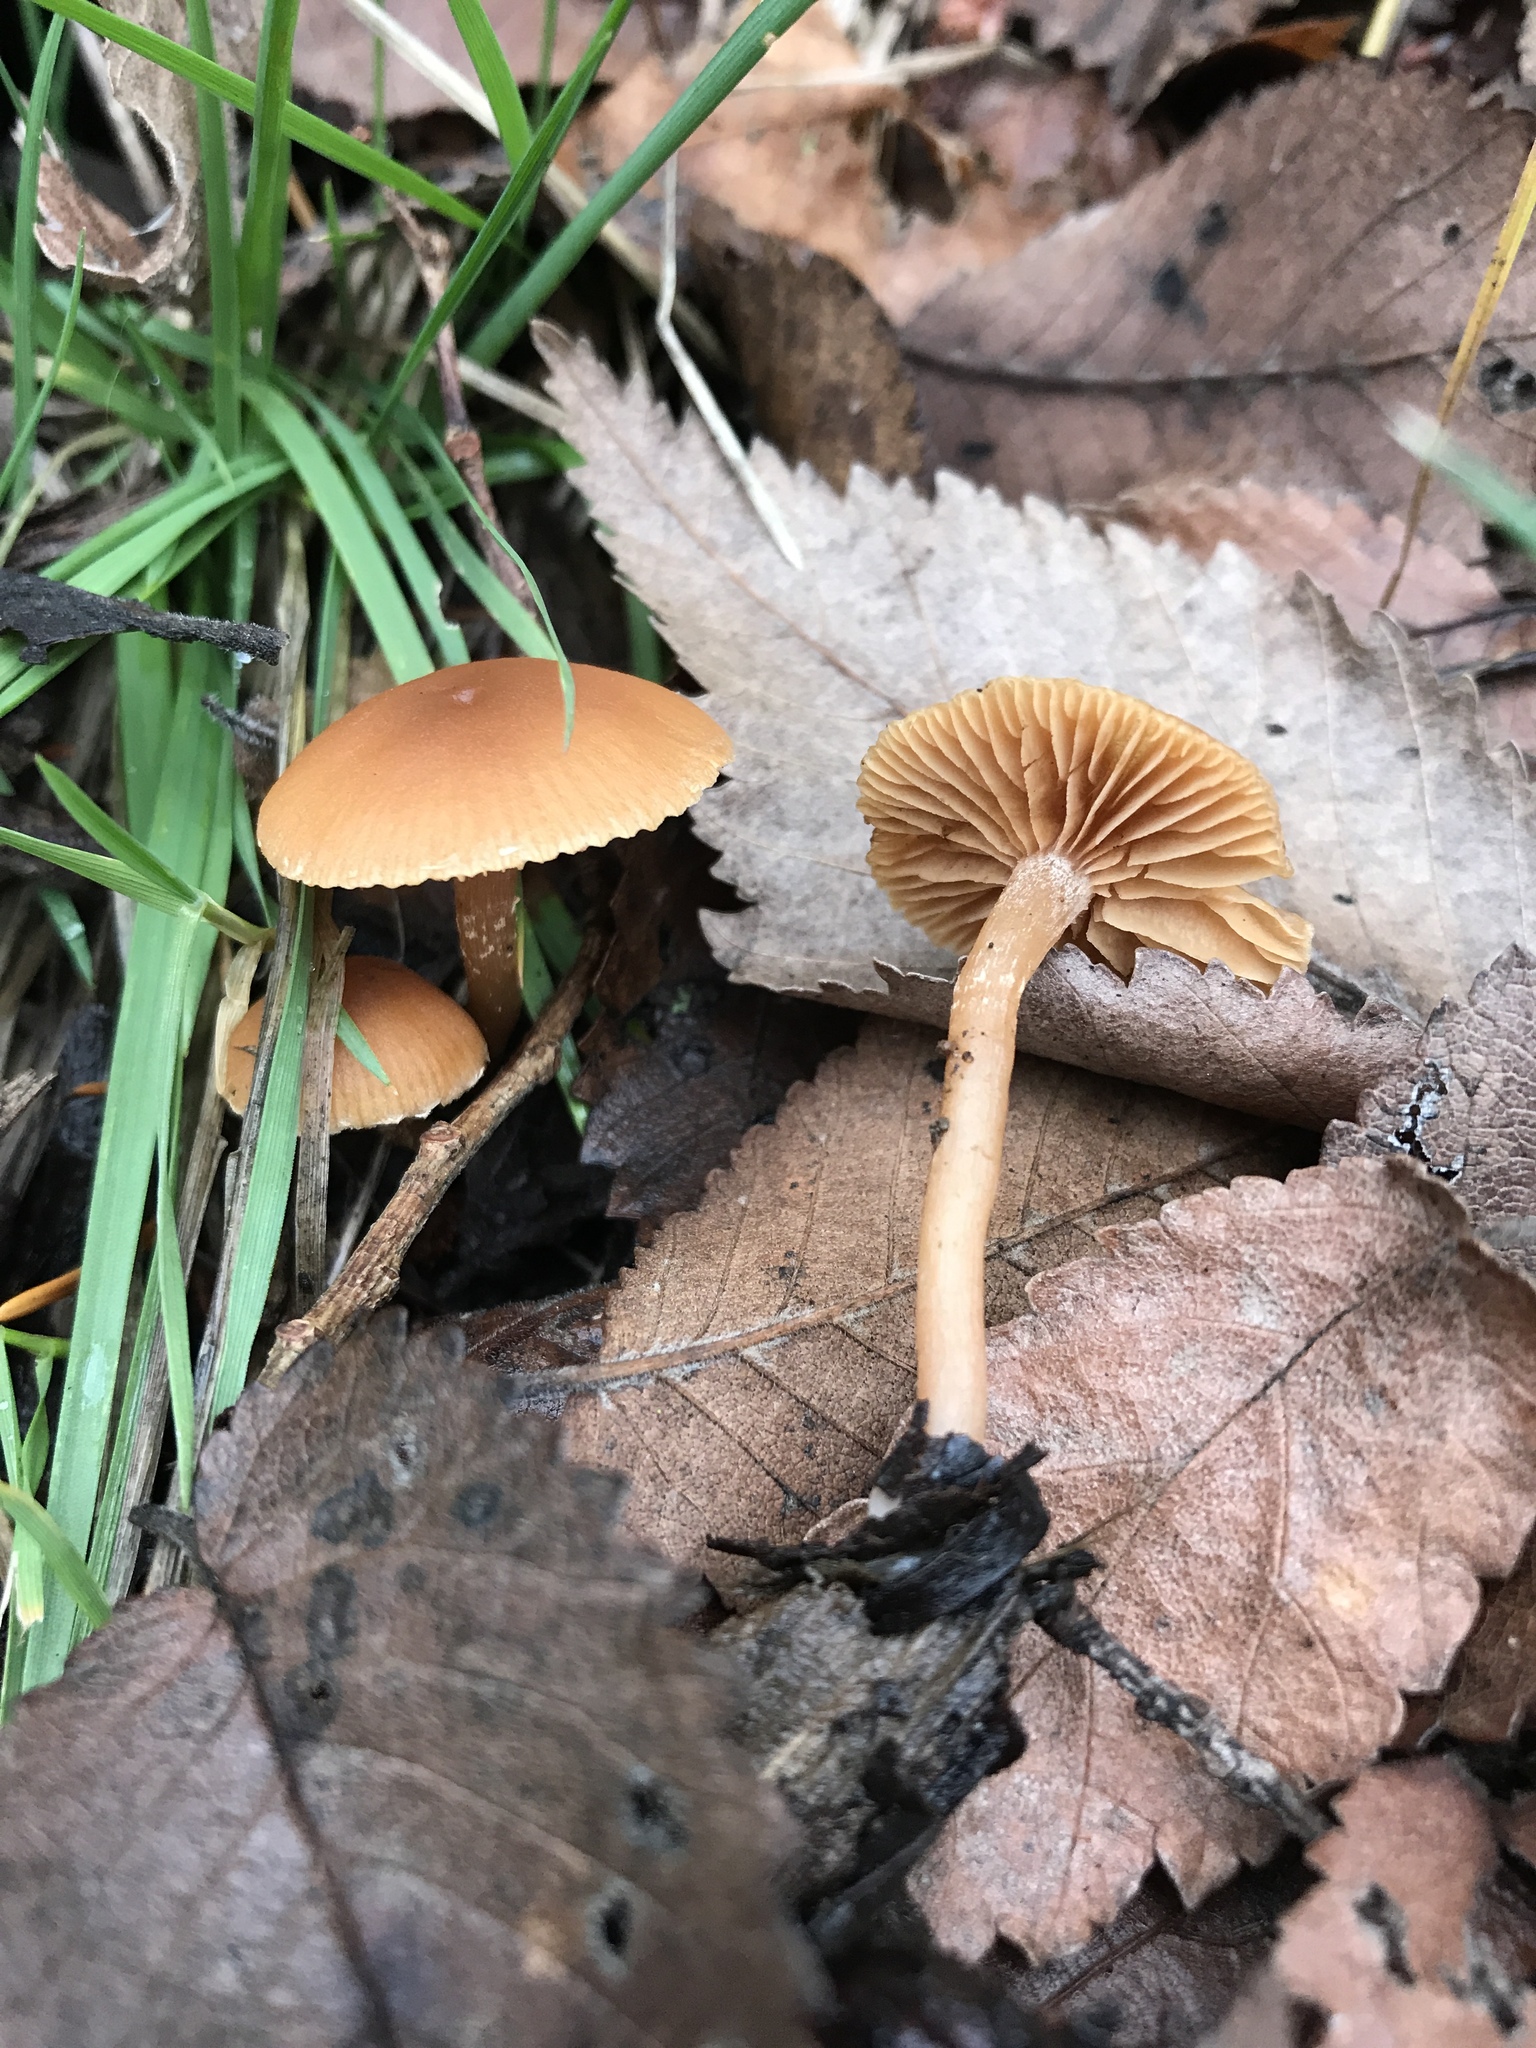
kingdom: Fungi
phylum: Basidiomycota
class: Agaricomycetes
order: Agaricales
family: Tubariaceae
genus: Tubaria
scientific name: Tubaria furfuracea
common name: Scurfy twiglet
